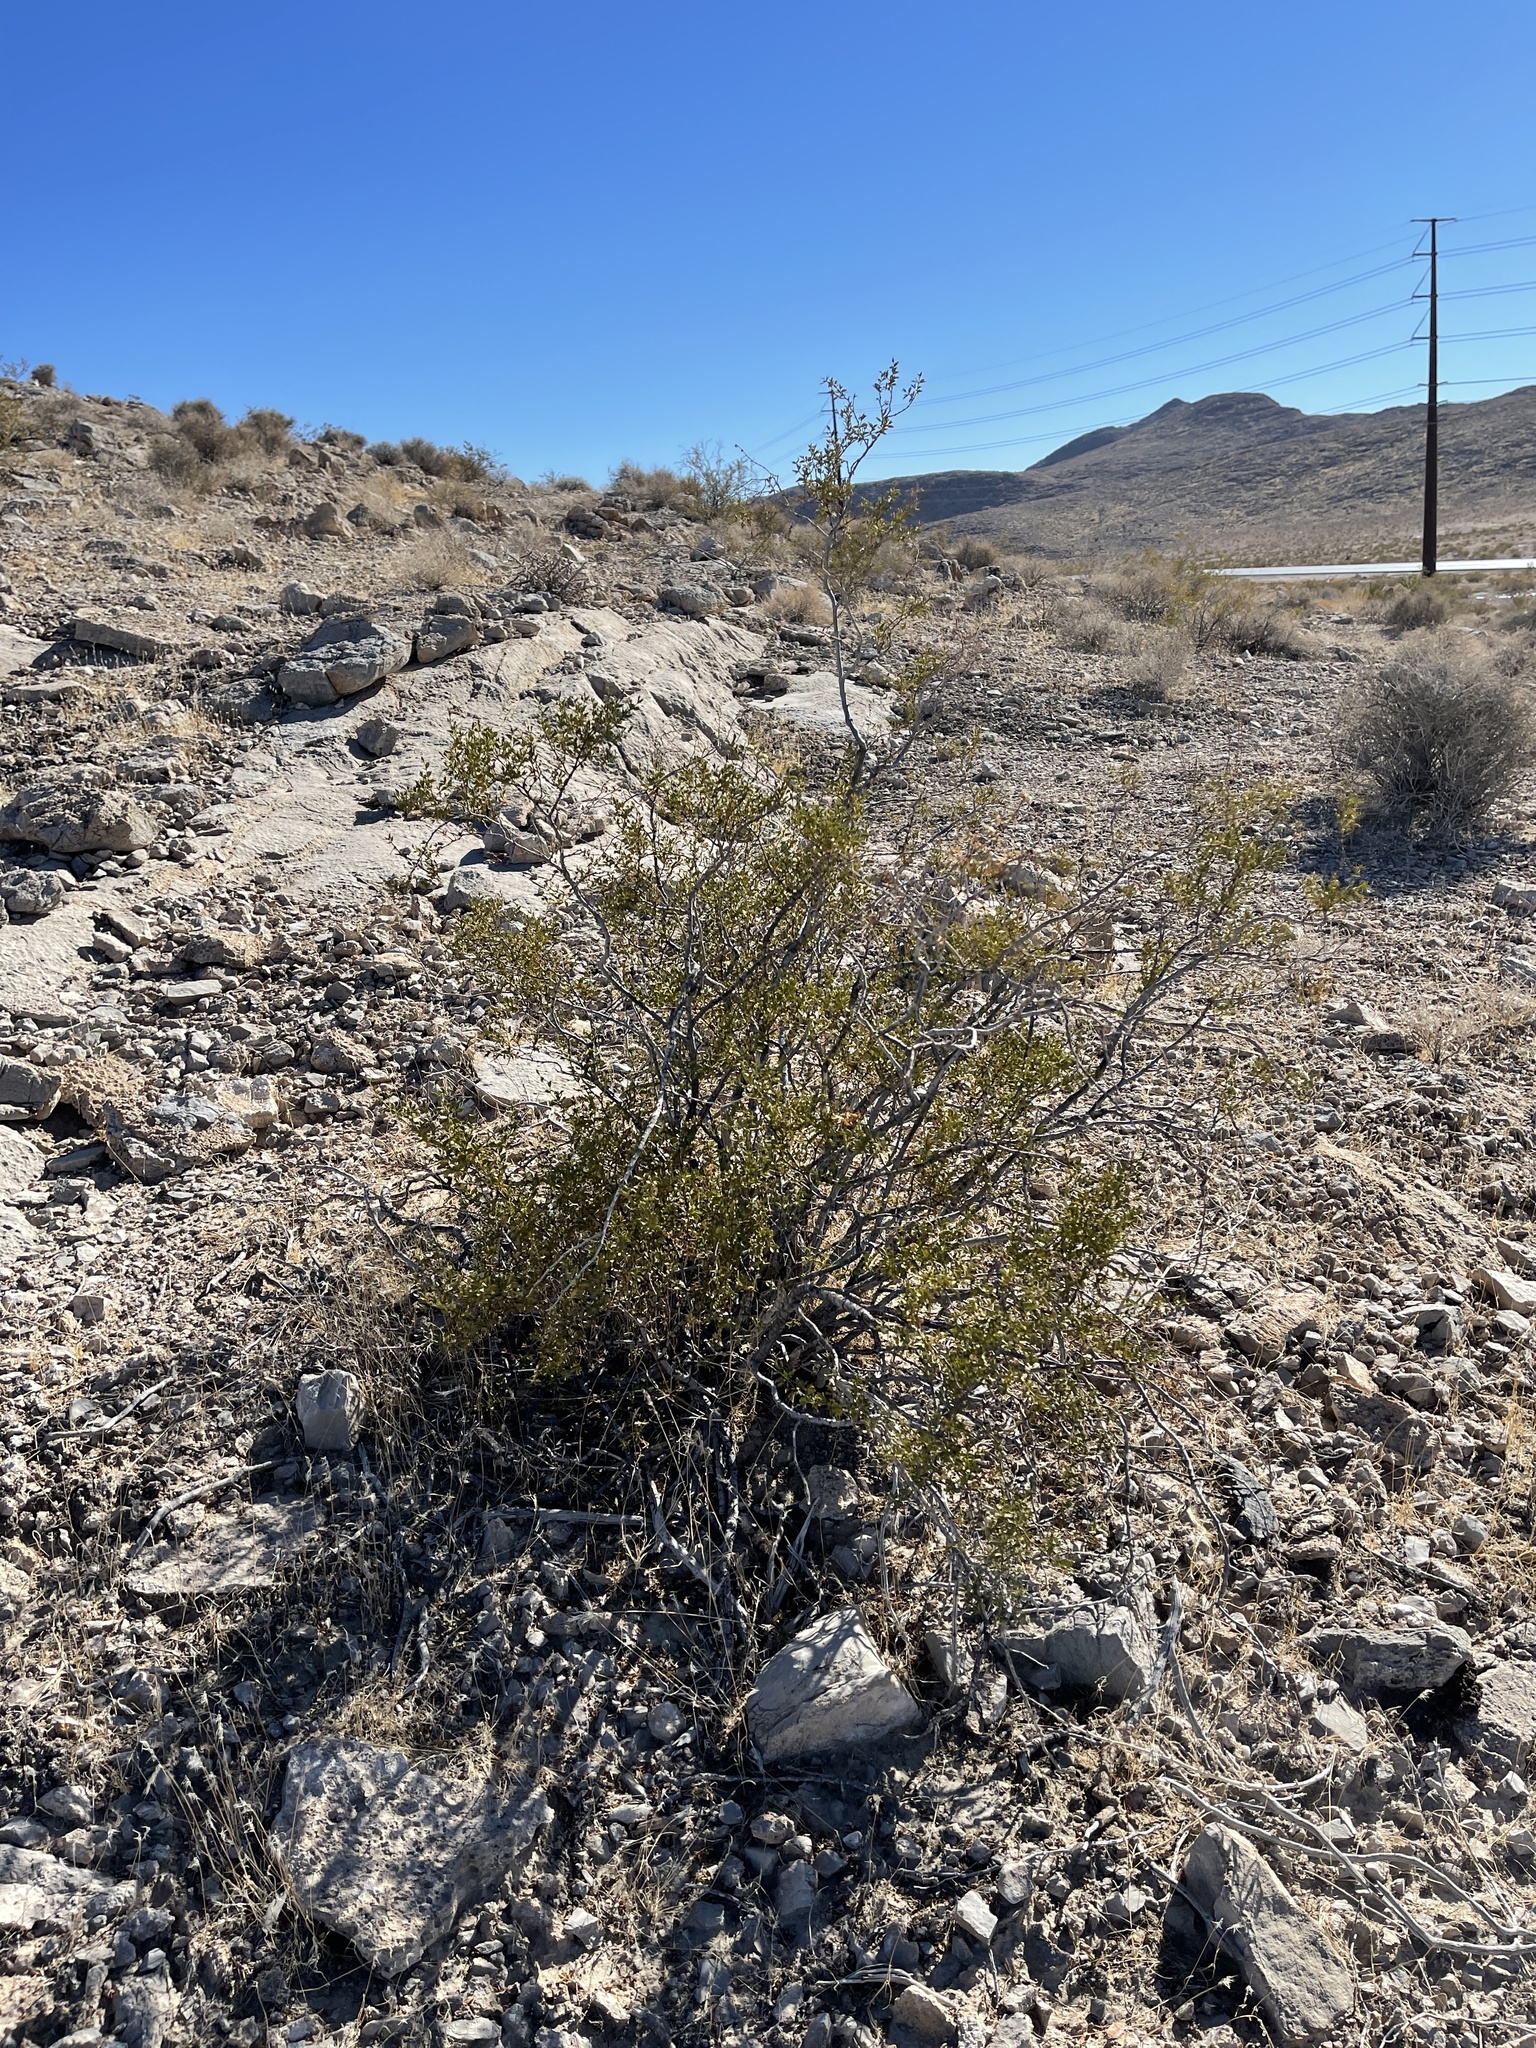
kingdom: Plantae
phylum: Tracheophyta
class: Magnoliopsida
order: Zygophyllales
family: Zygophyllaceae
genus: Larrea
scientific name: Larrea tridentata
